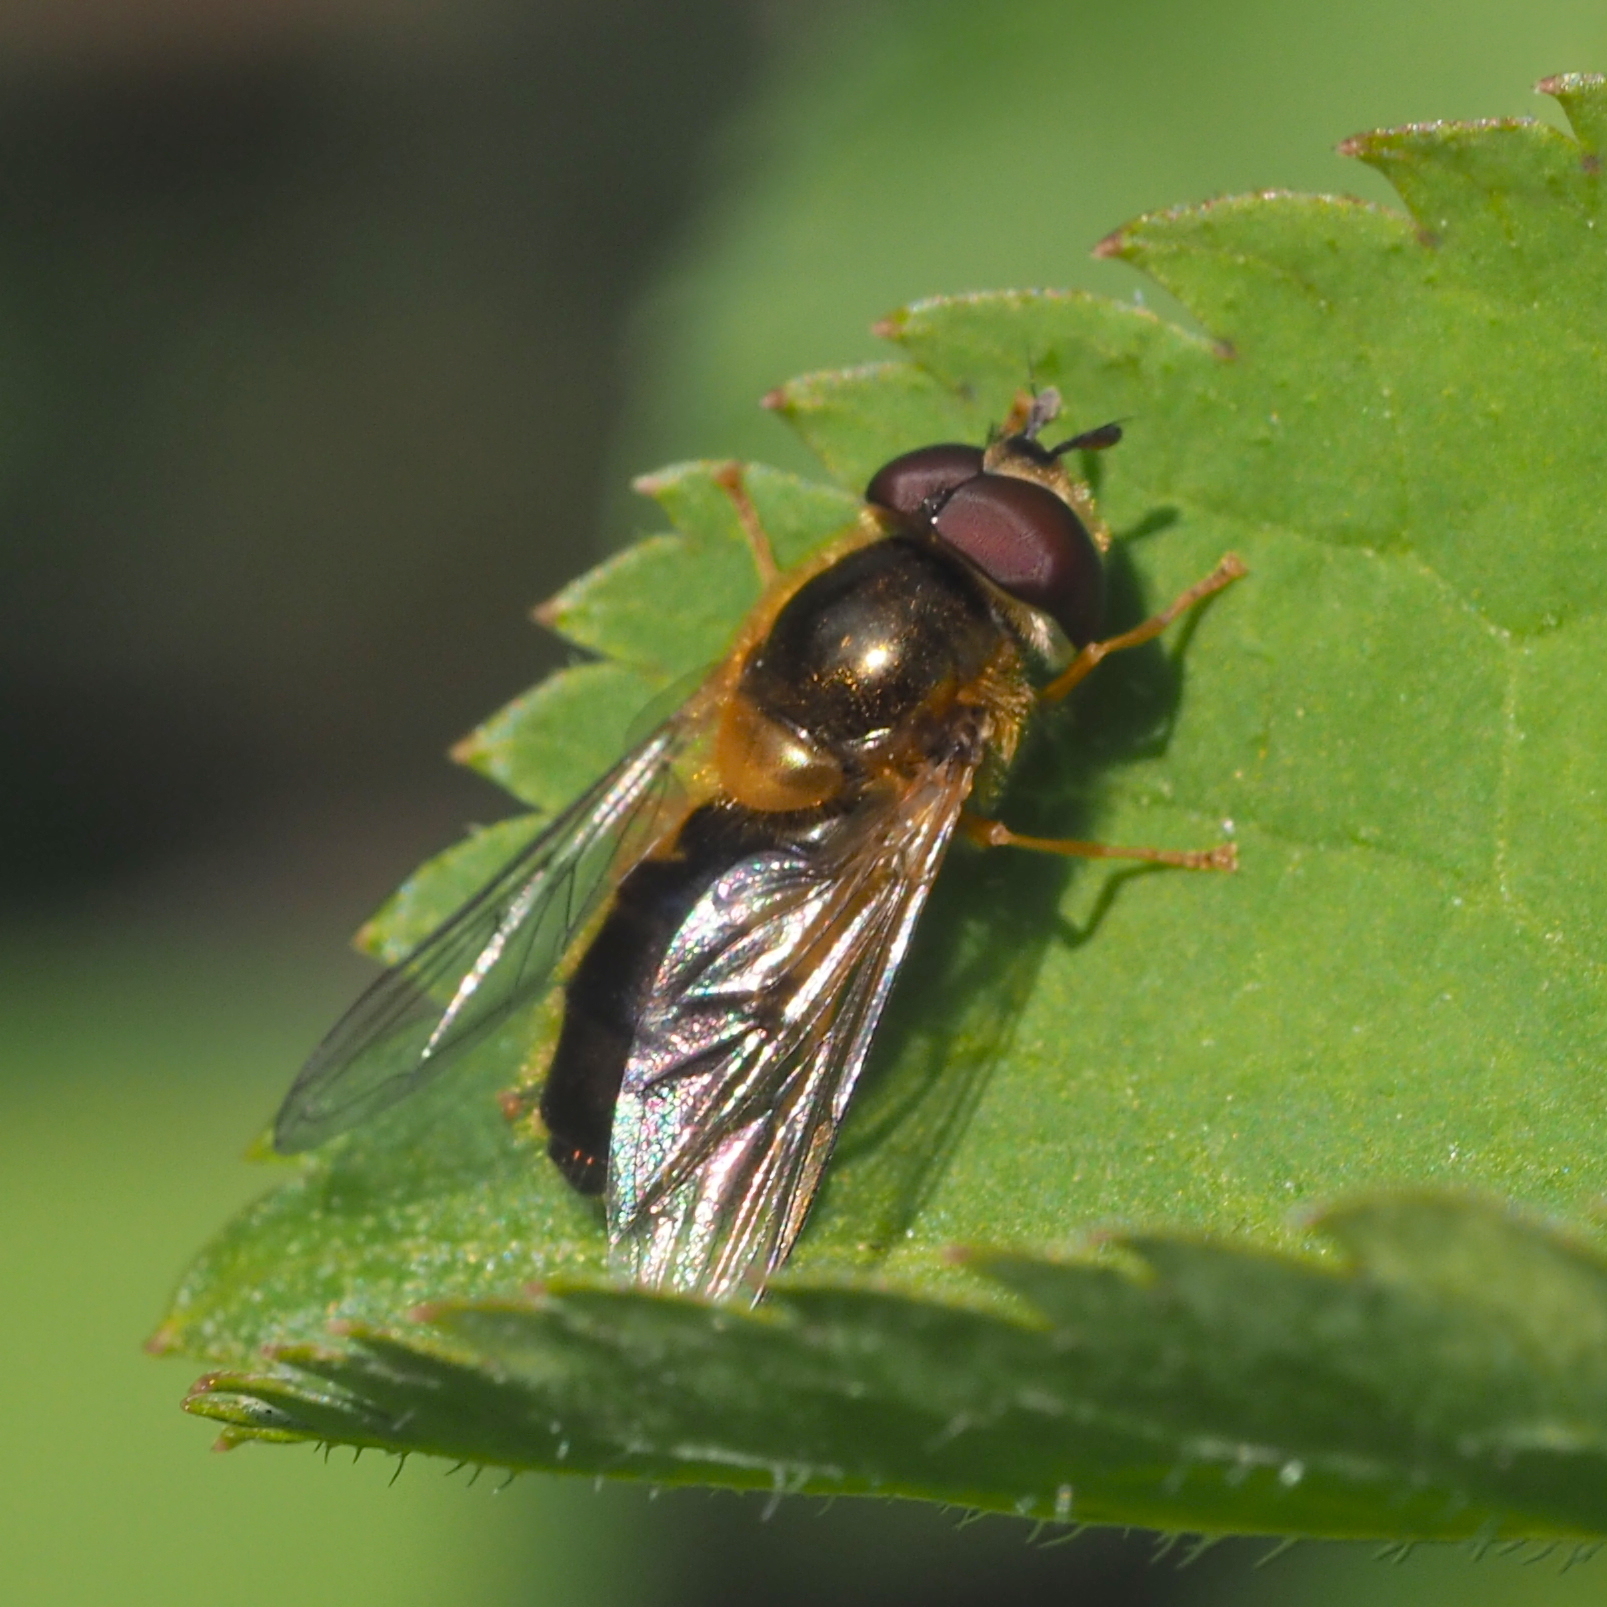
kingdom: Animalia
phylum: Arthropoda
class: Insecta
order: Diptera
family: Syrphidae
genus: Epistrophe
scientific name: Epistrophe eligans
